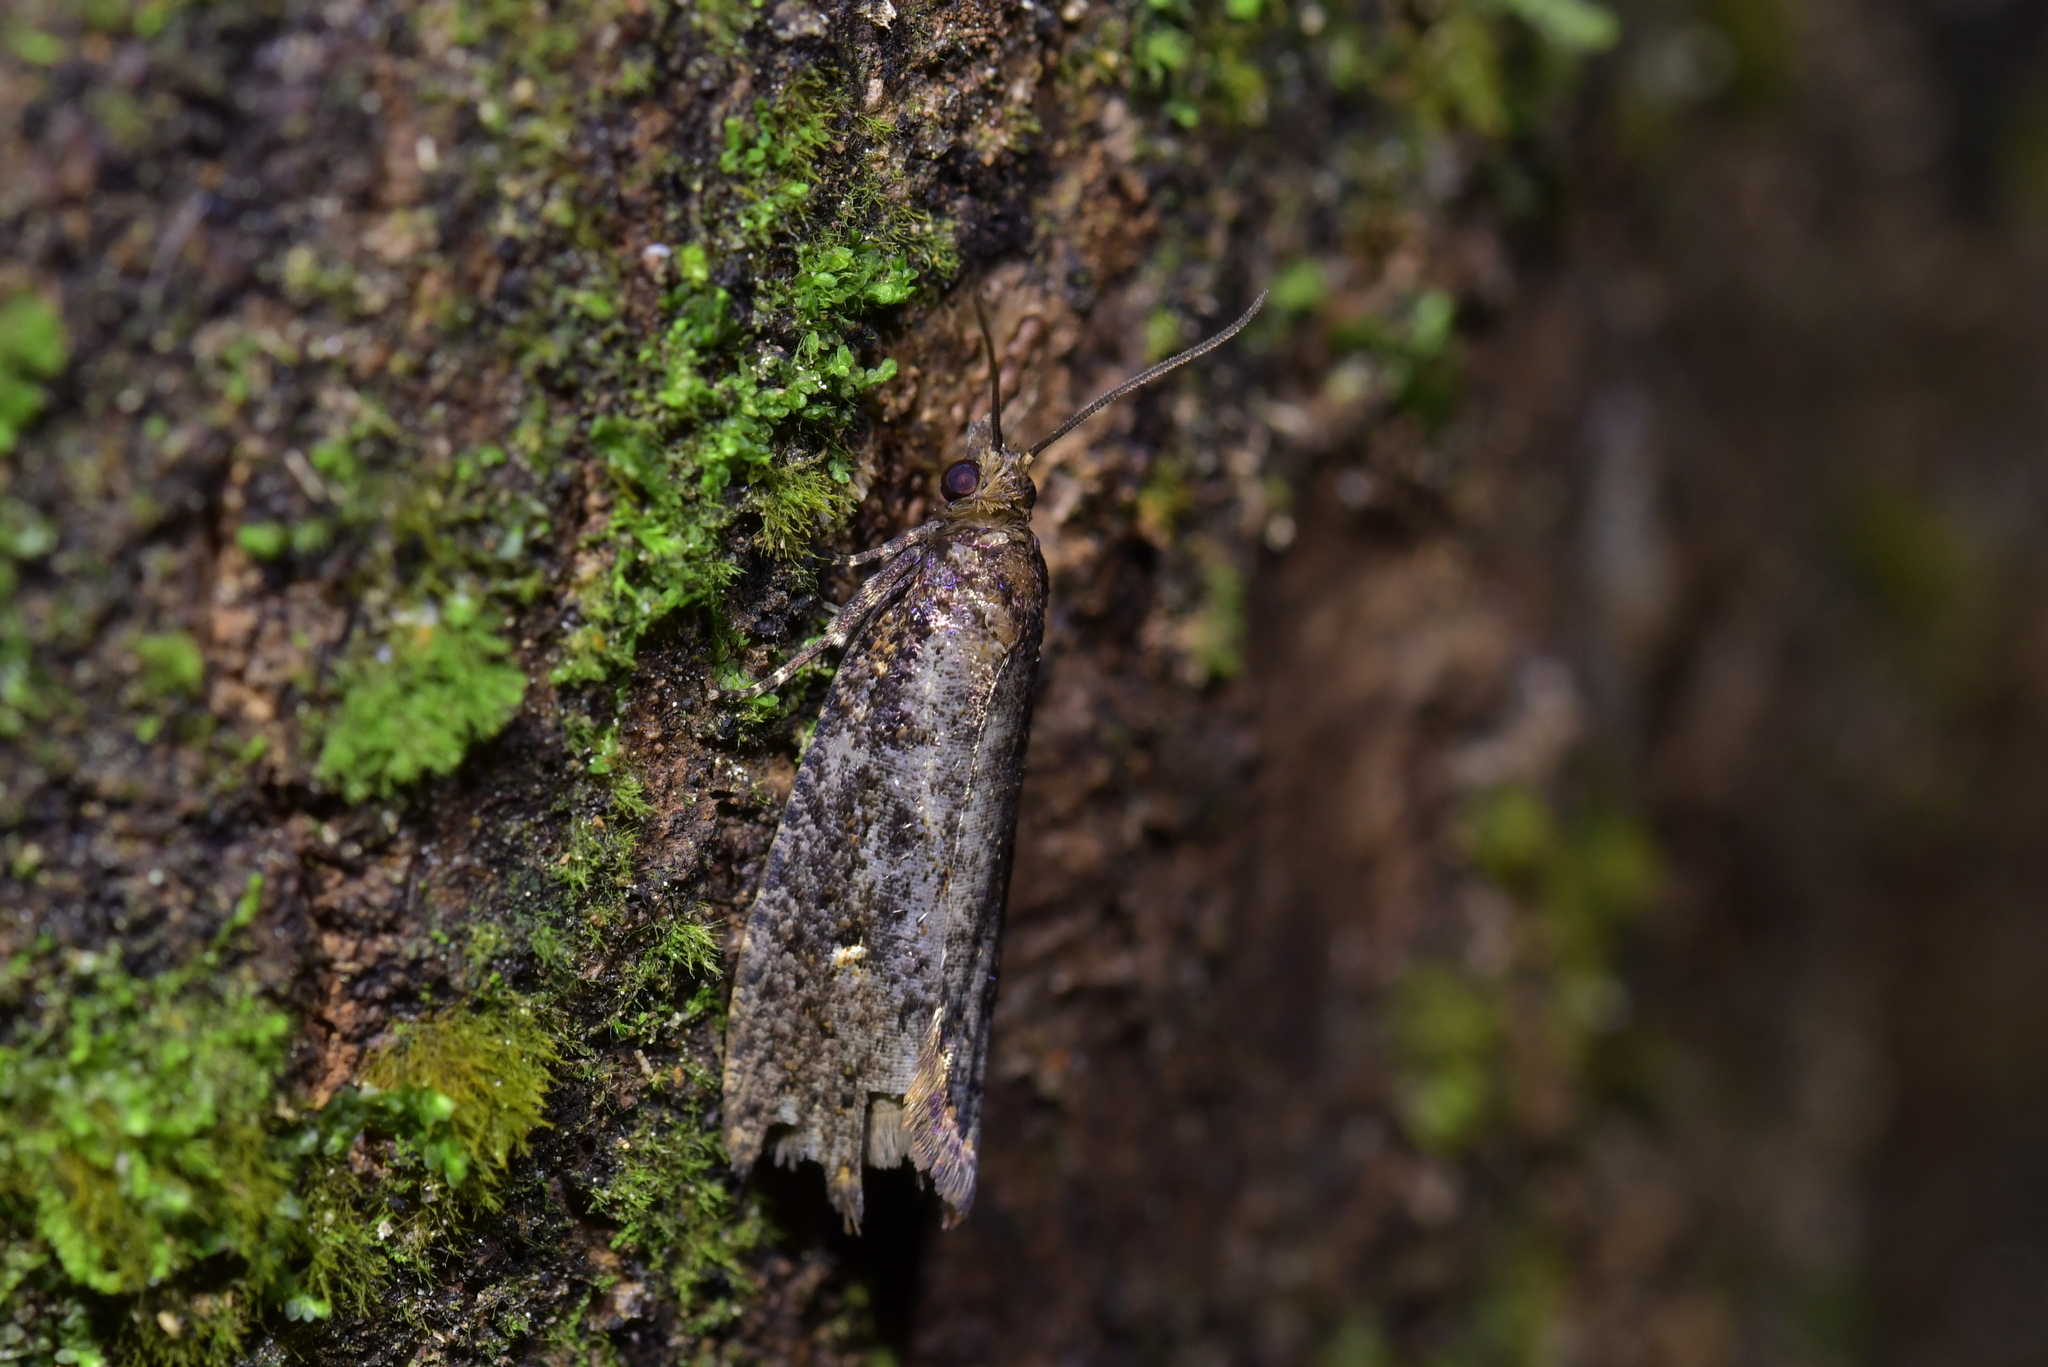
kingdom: Animalia
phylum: Arthropoda
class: Insecta
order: Lepidoptera
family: Tortricidae
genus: Cryptaspasma
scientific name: Cryptaspasma querula
